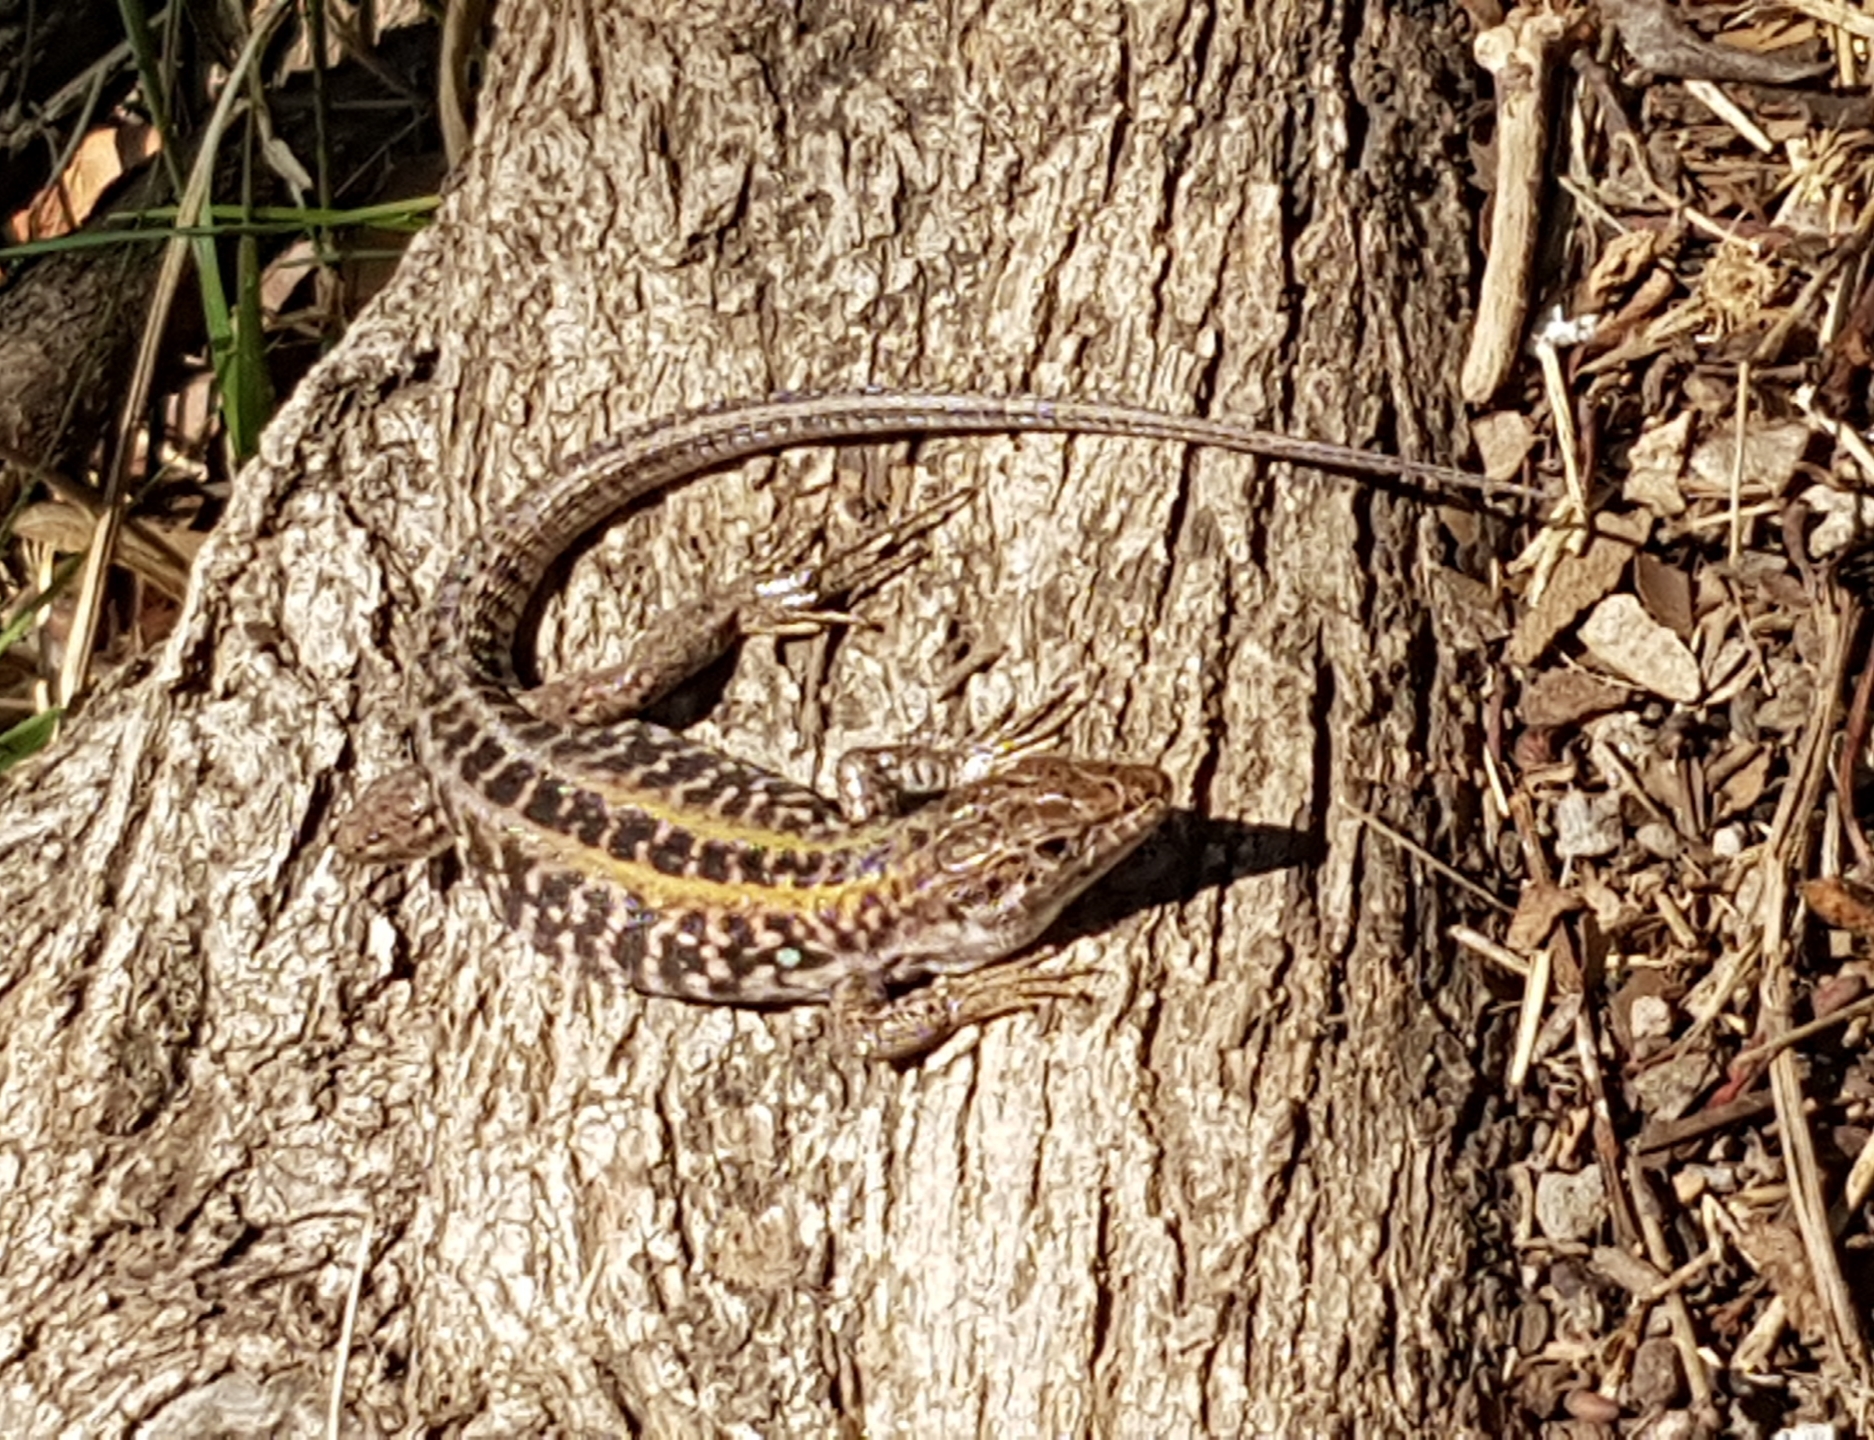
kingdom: Animalia
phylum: Chordata
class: Squamata
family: Lacertidae
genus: Podarcis
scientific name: Podarcis siculus
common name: Italian wall lizard
